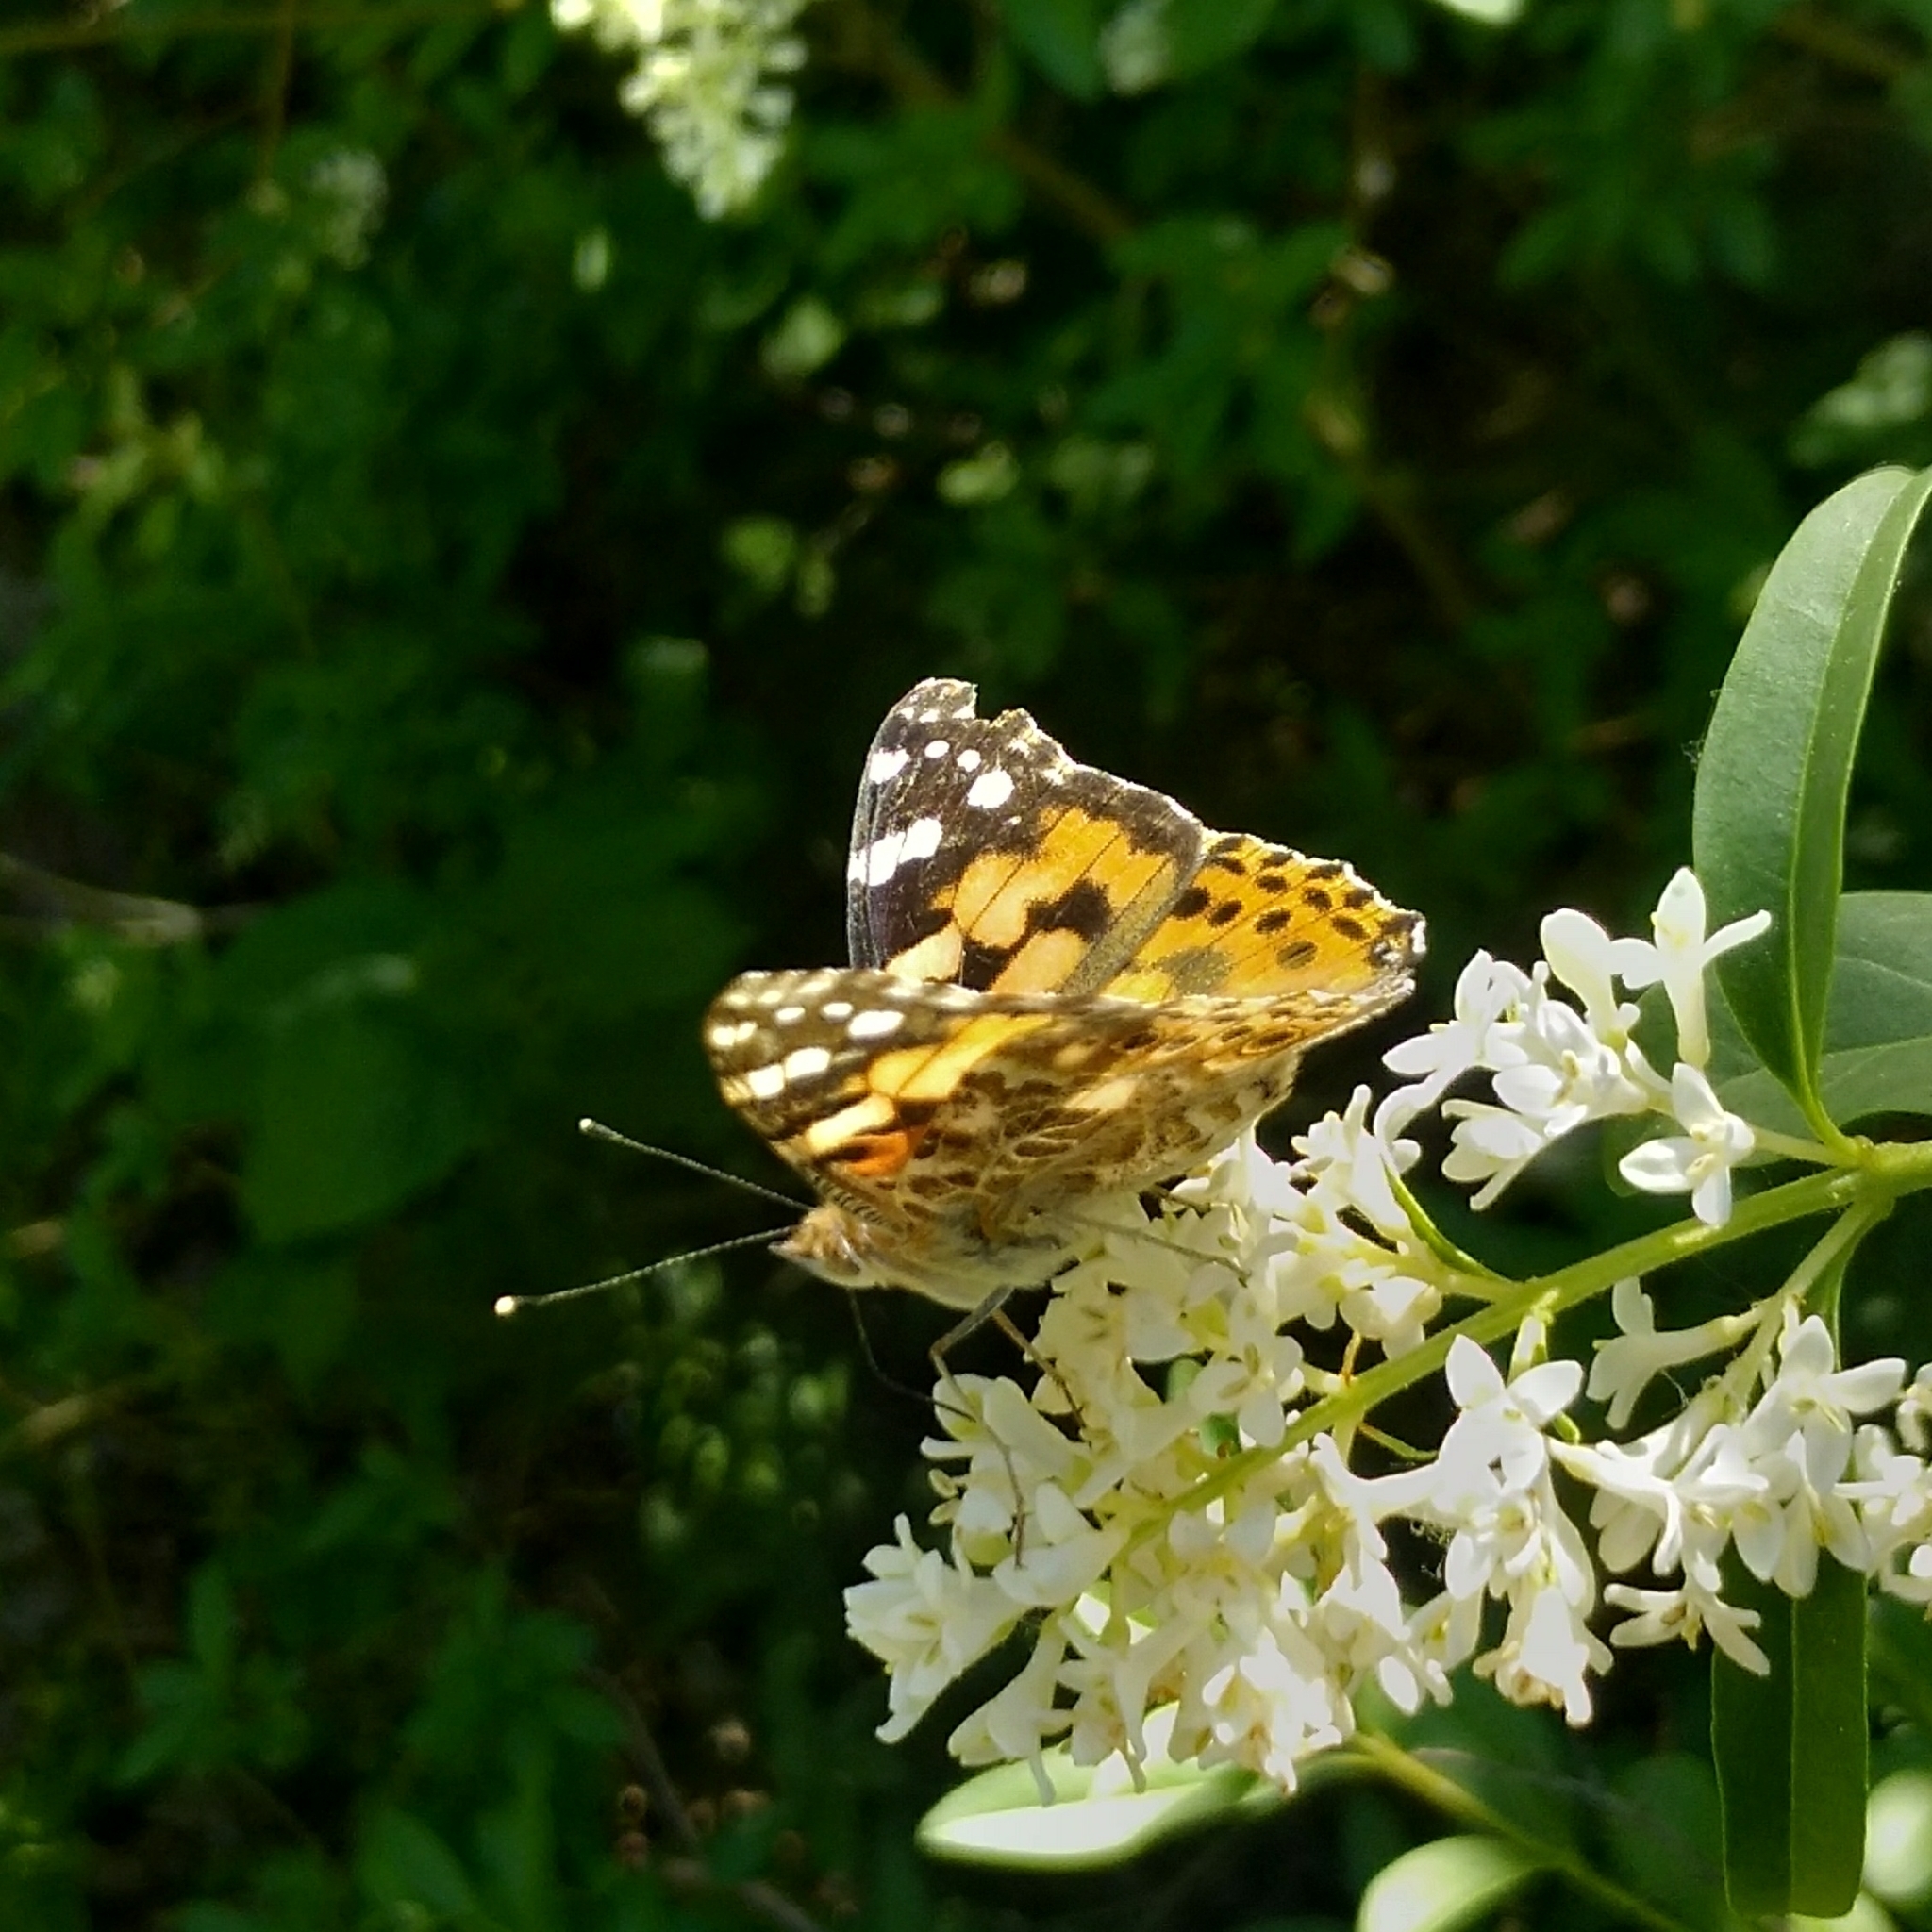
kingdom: Animalia
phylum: Arthropoda
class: Insecta
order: Lepidoptera
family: Nymphalidae
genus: Vanessa
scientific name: Vanessa cardui
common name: Painted lady
